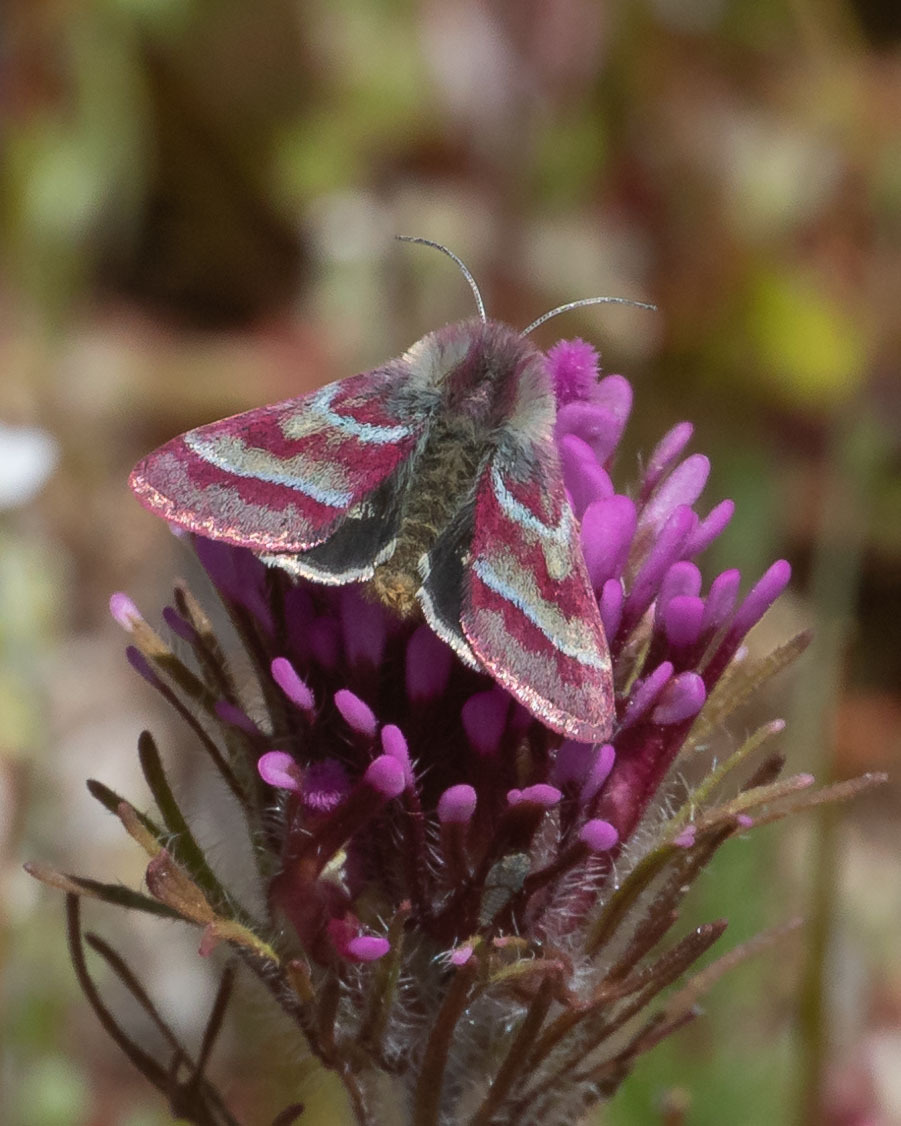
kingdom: Animalia
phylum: Arthropoda
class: Insecta
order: Lepidoptera
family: Noctuidae
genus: Schinia
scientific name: Schinia pulchripennis
